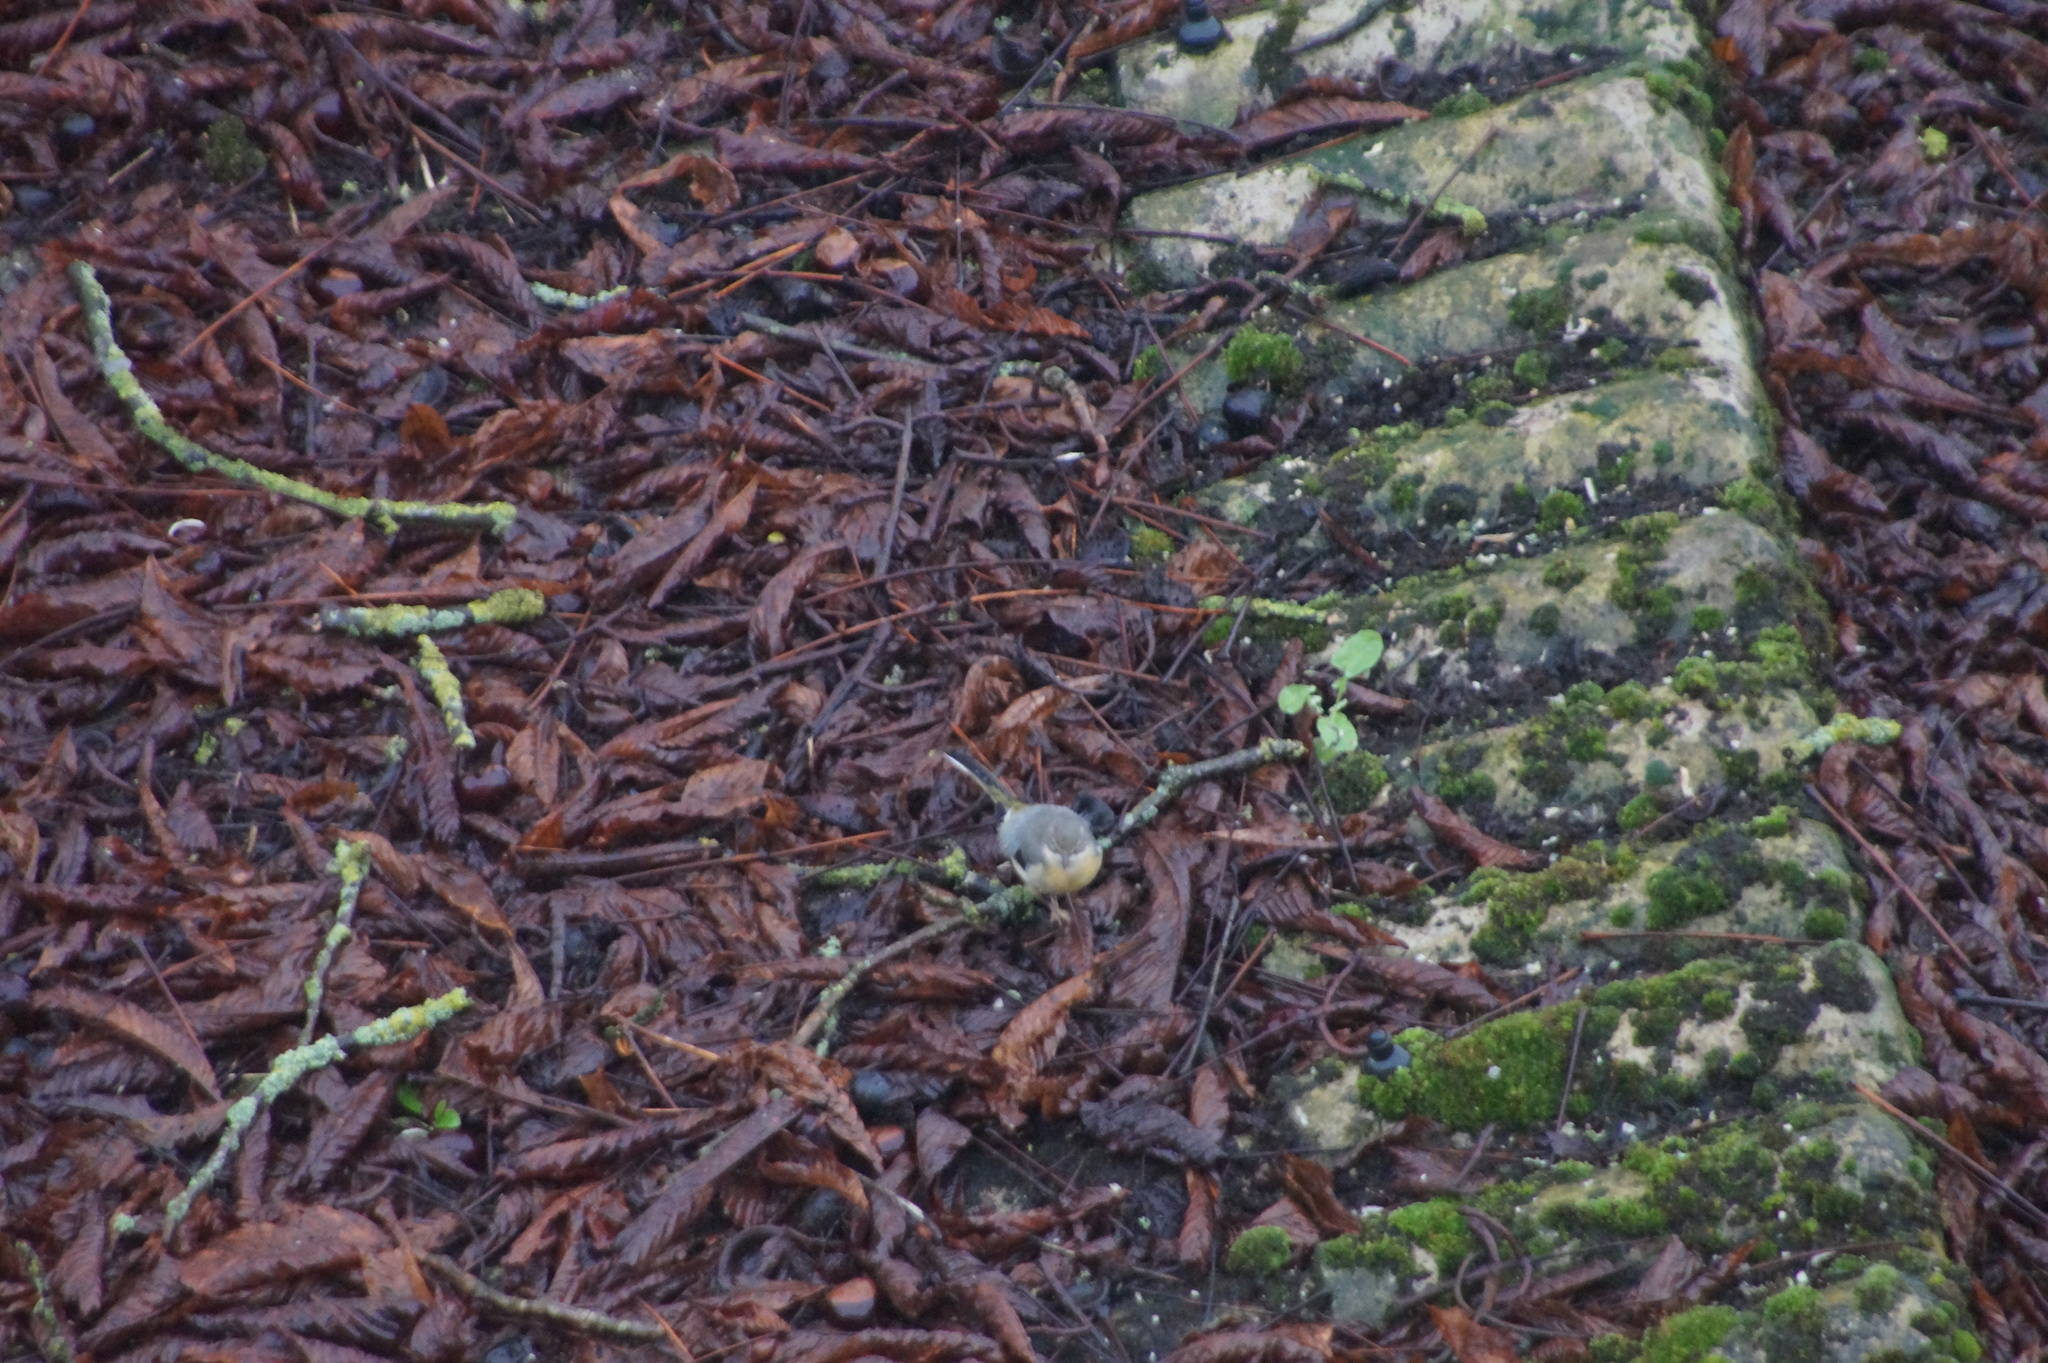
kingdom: Animalia
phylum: Chordata
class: Aves
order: Passeriformes
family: Motacillidae
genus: Motacilla
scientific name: Motacilla cinerea
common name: Grey wagtail
